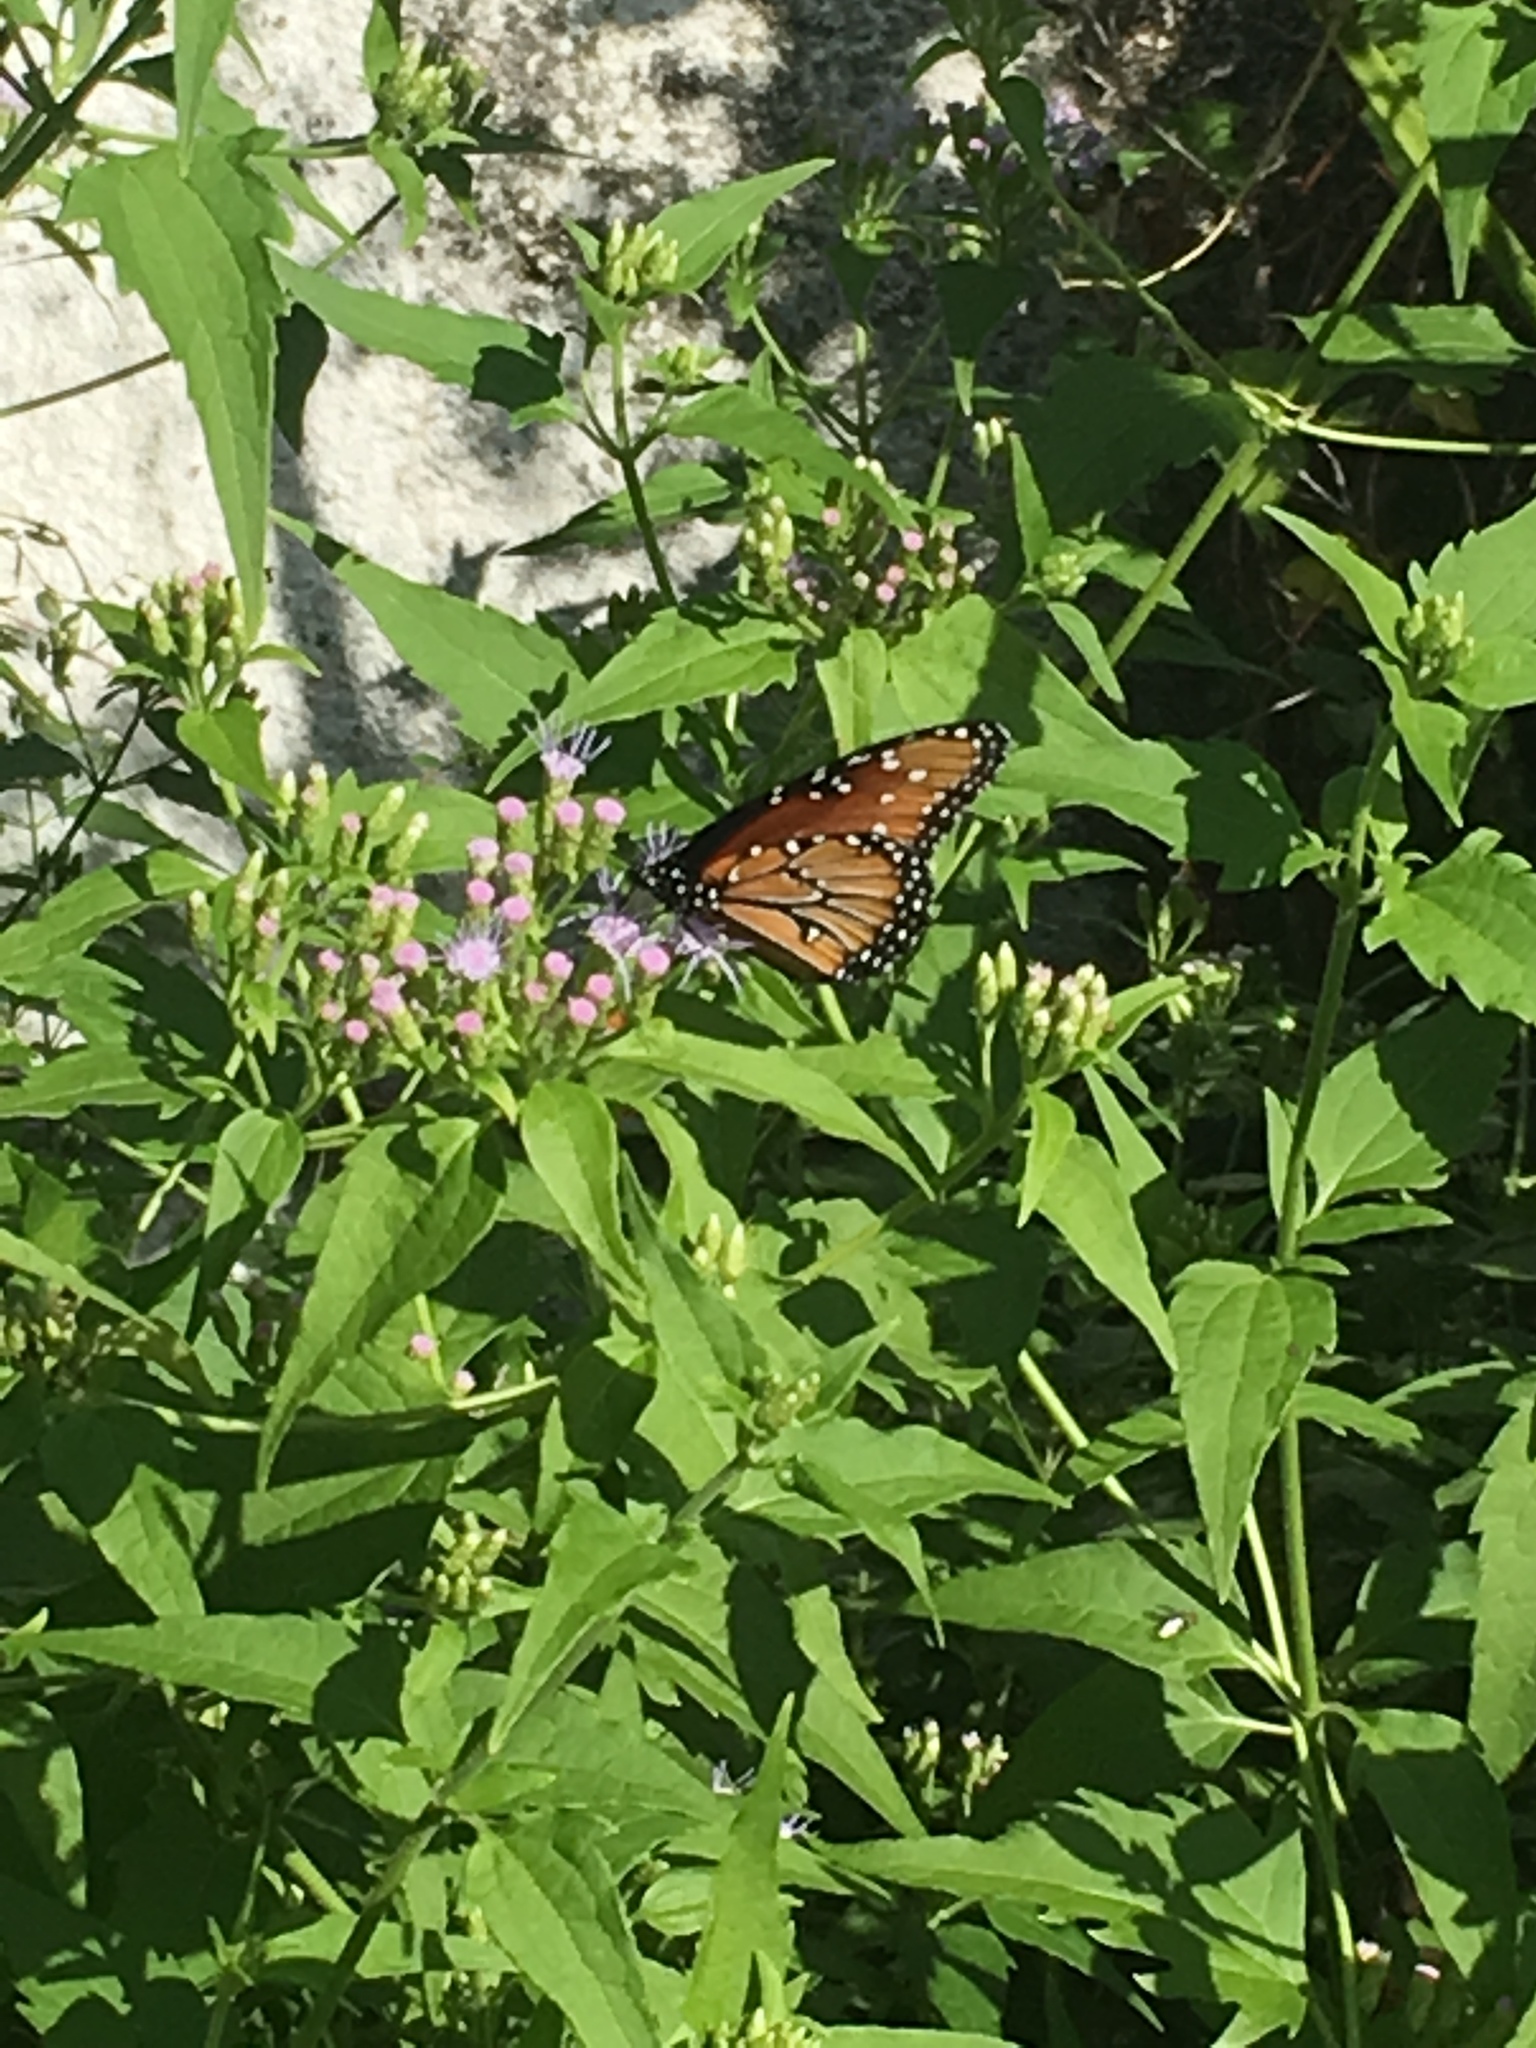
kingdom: Animalia
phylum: Arthropoda
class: Insecta
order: Lepidoptera
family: Nymphalidae
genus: Danaus
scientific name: Danaus gilippus
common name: Queen
